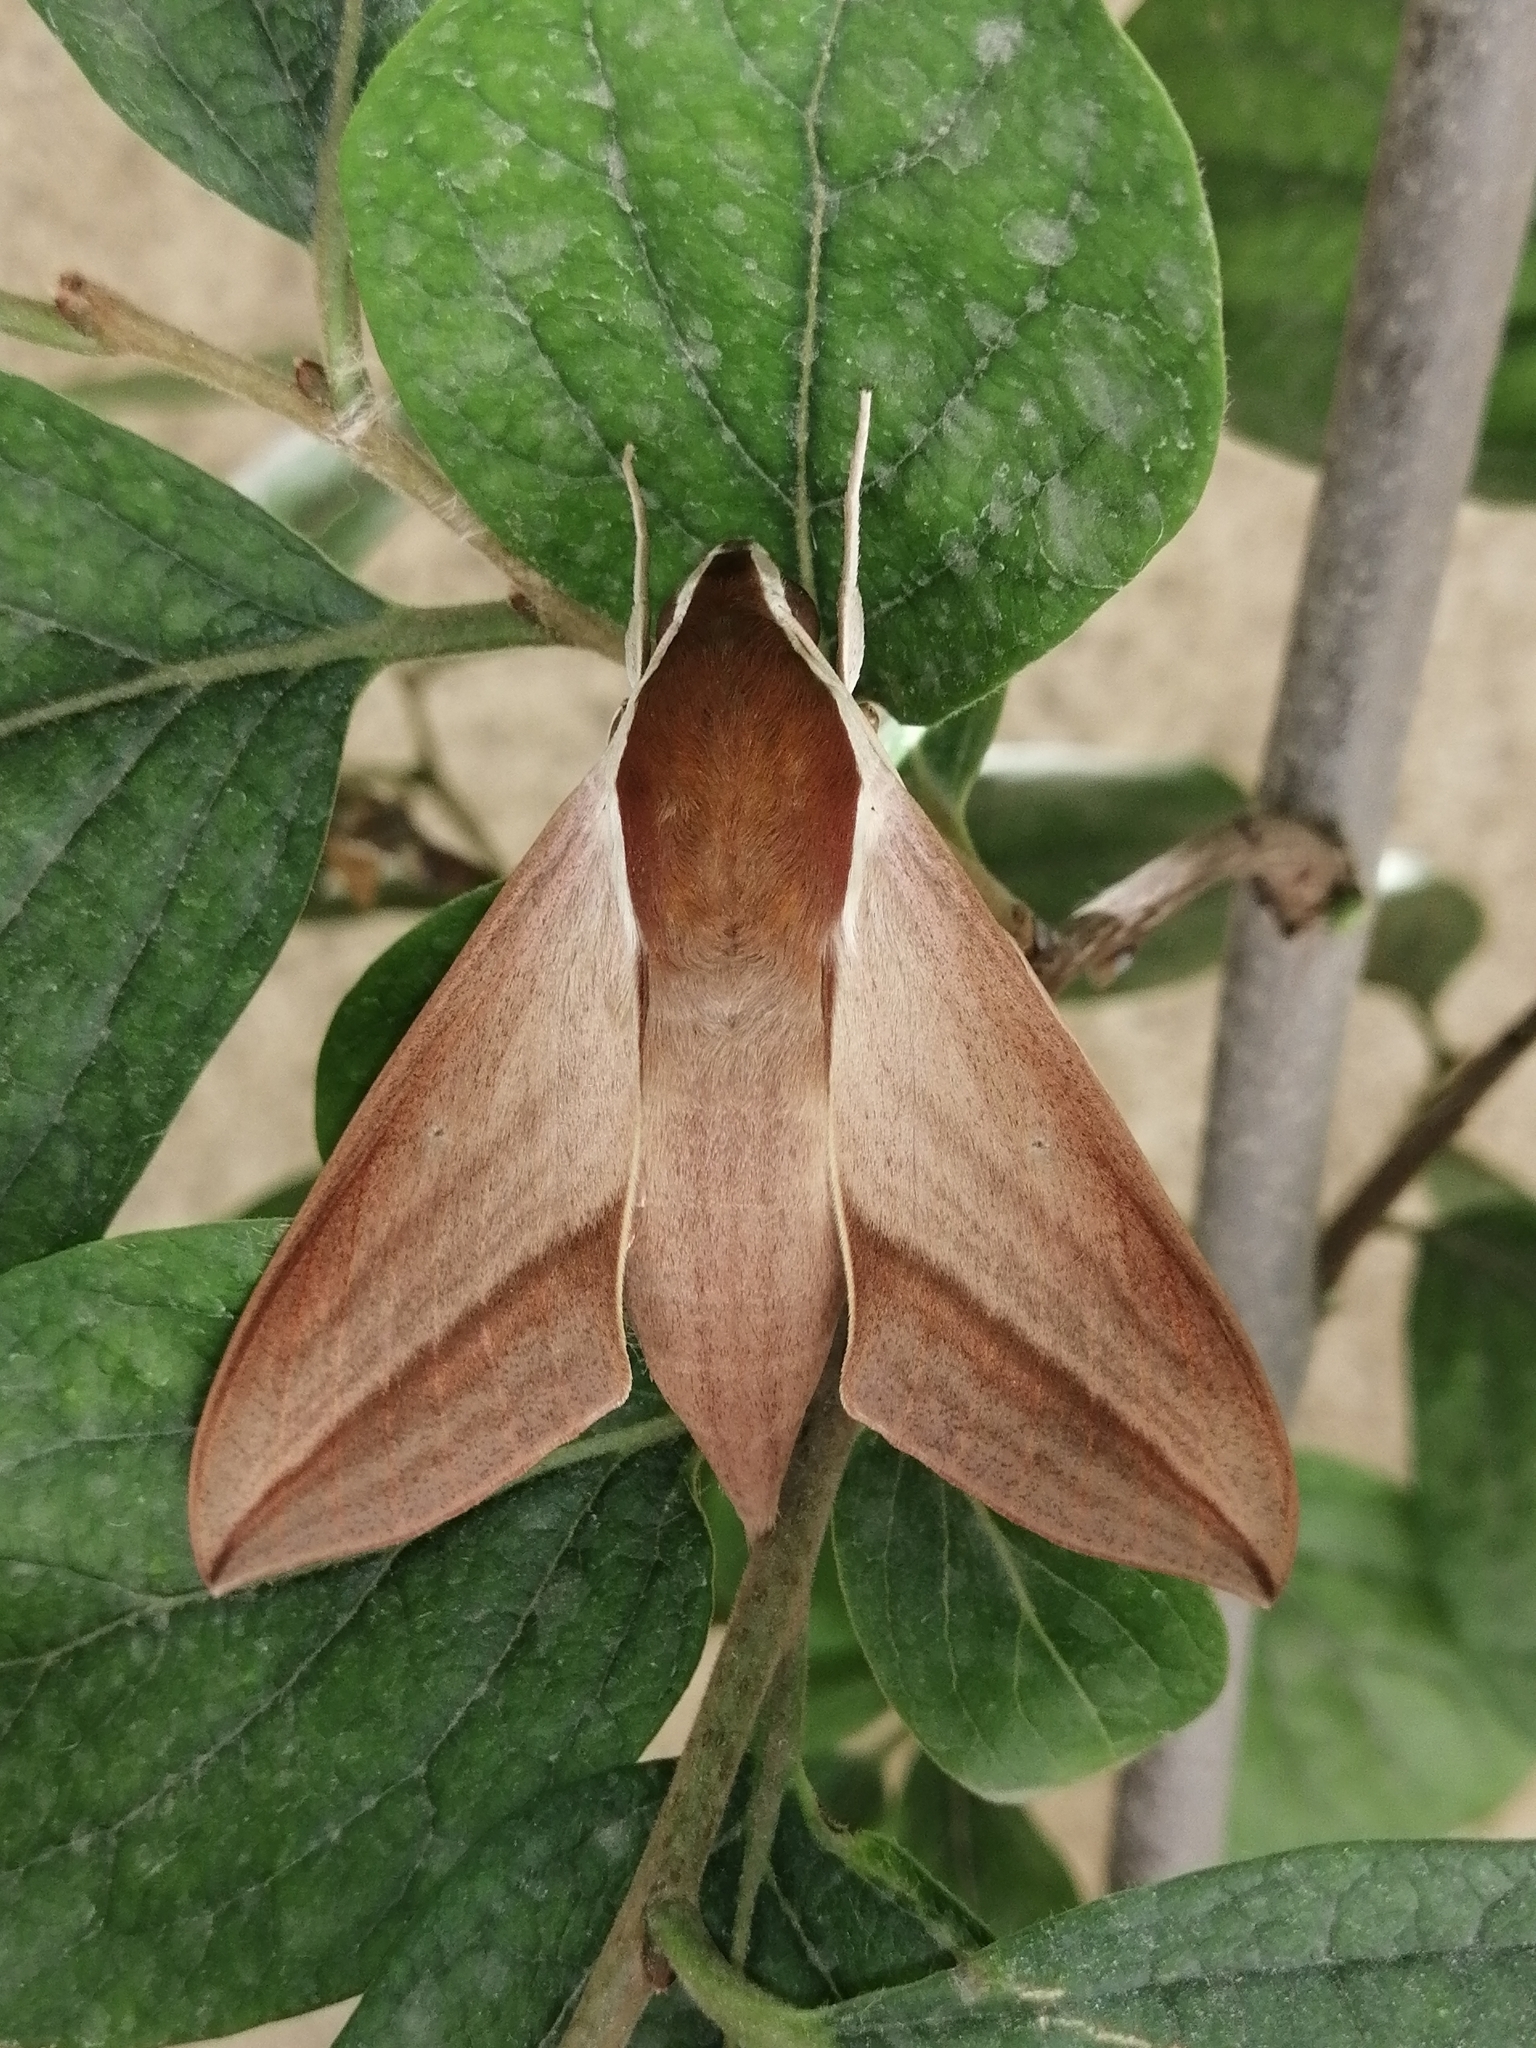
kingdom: Animalia
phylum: Arthropoda
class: Insecta
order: Lepidoptera
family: Sphingidae
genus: Theretra
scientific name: Theretra alecto
